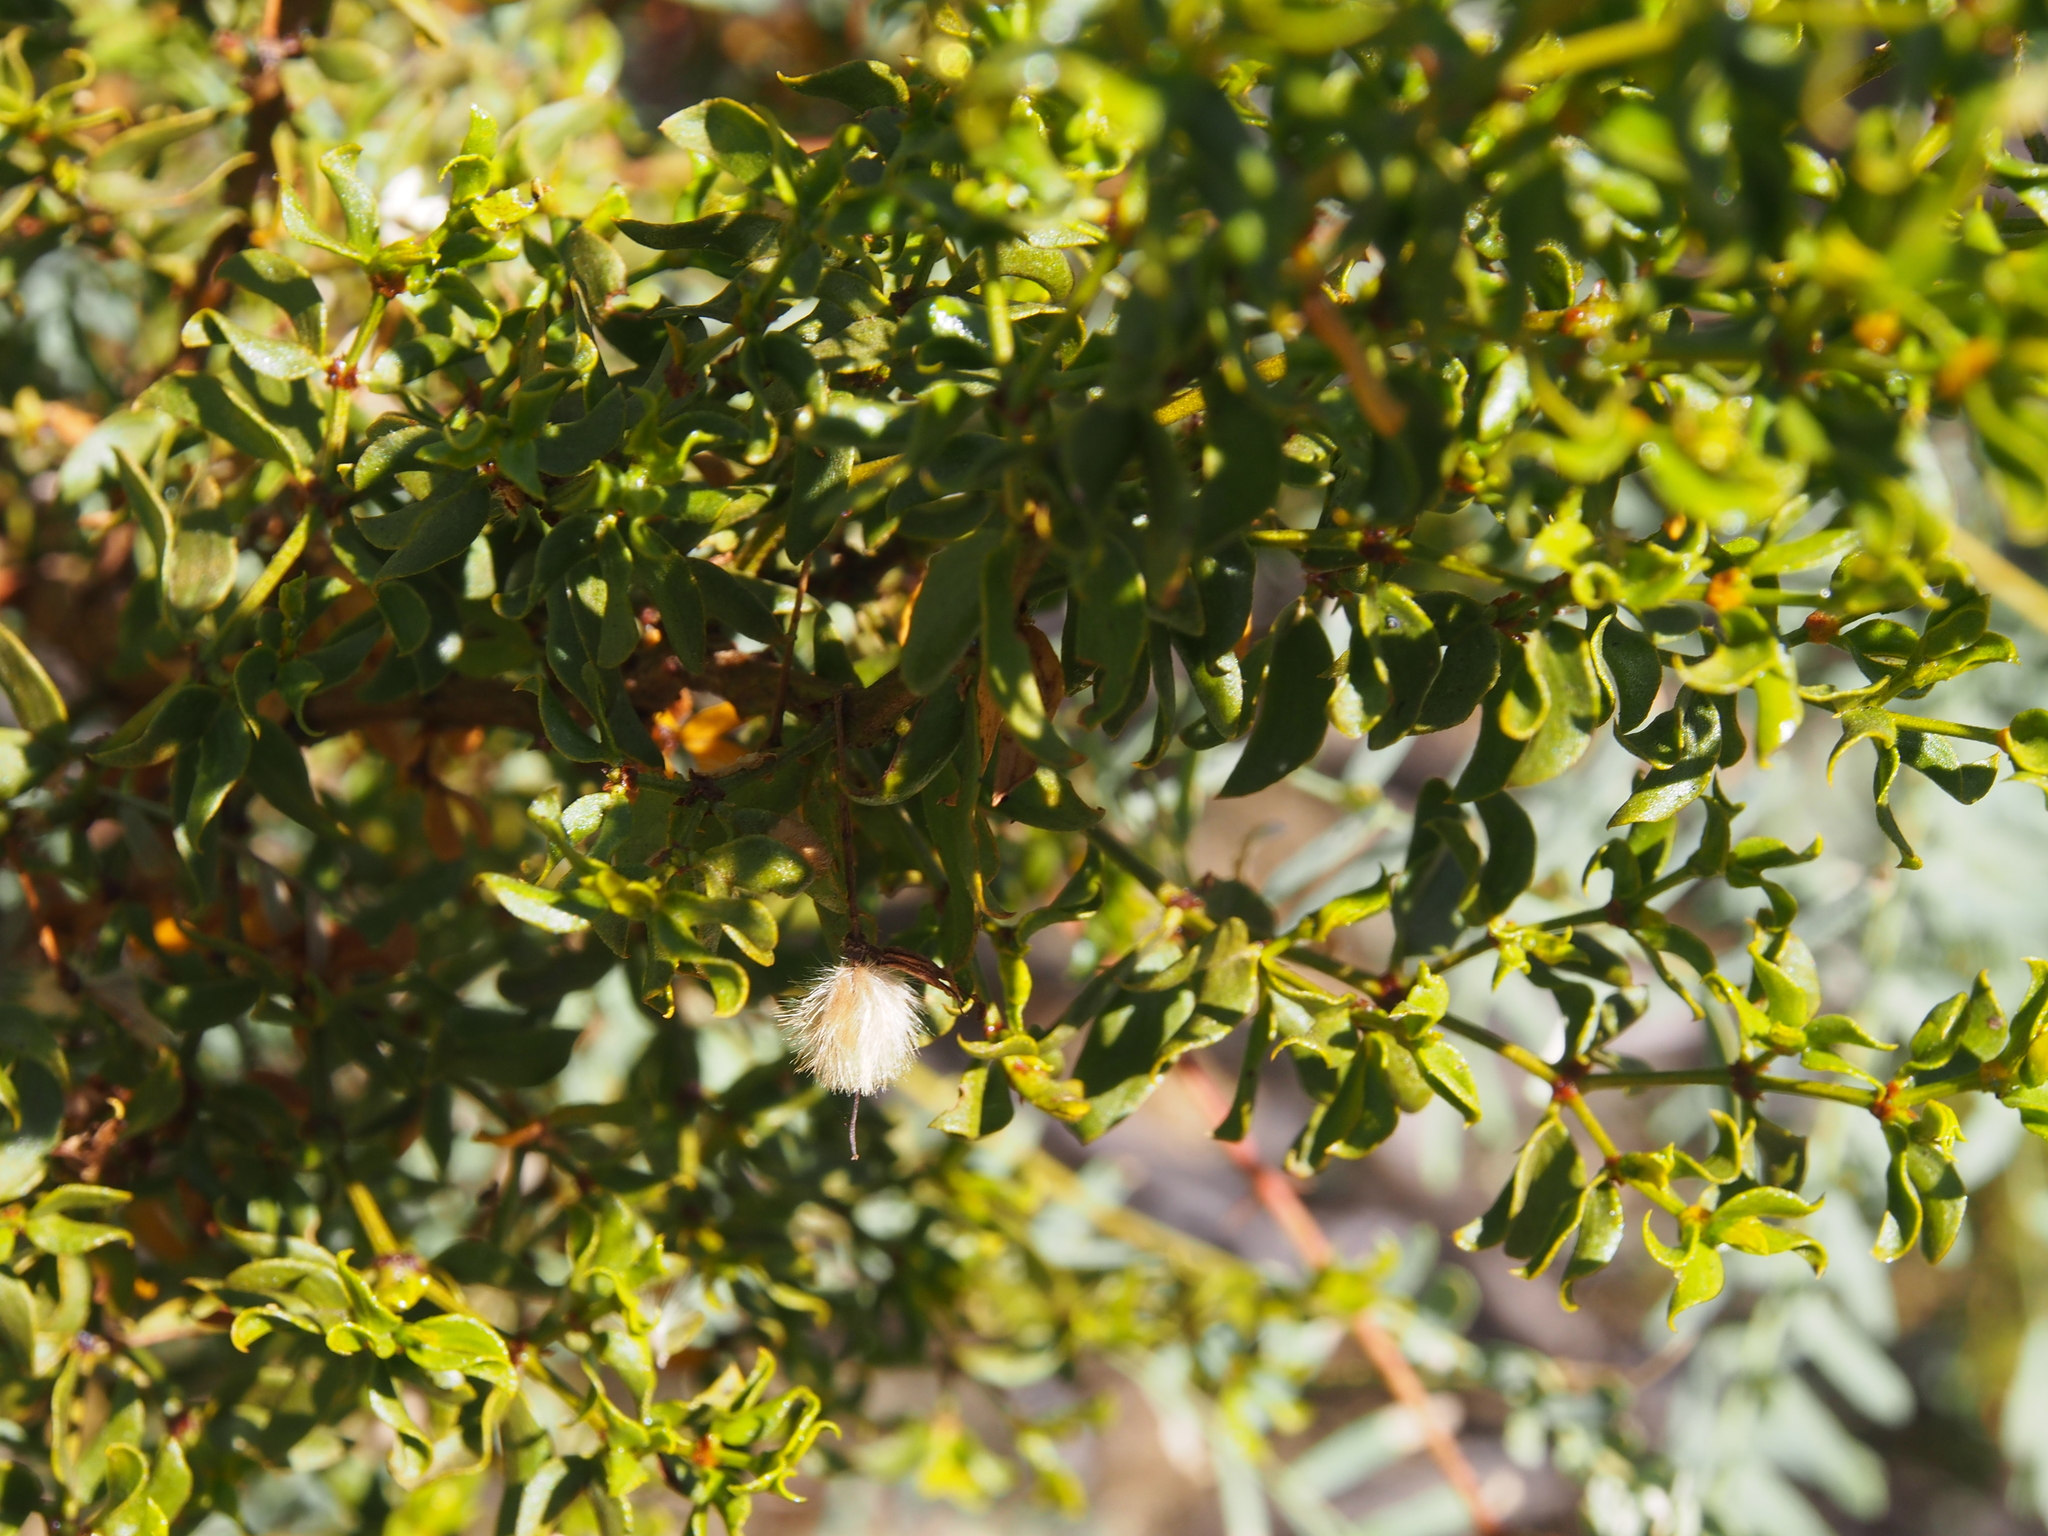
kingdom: Plantae
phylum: Tracheophyta
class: Magnoliopsida
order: Zygophyllales
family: Zygophyllaceae
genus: Larrea
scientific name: Larrea tridentata
